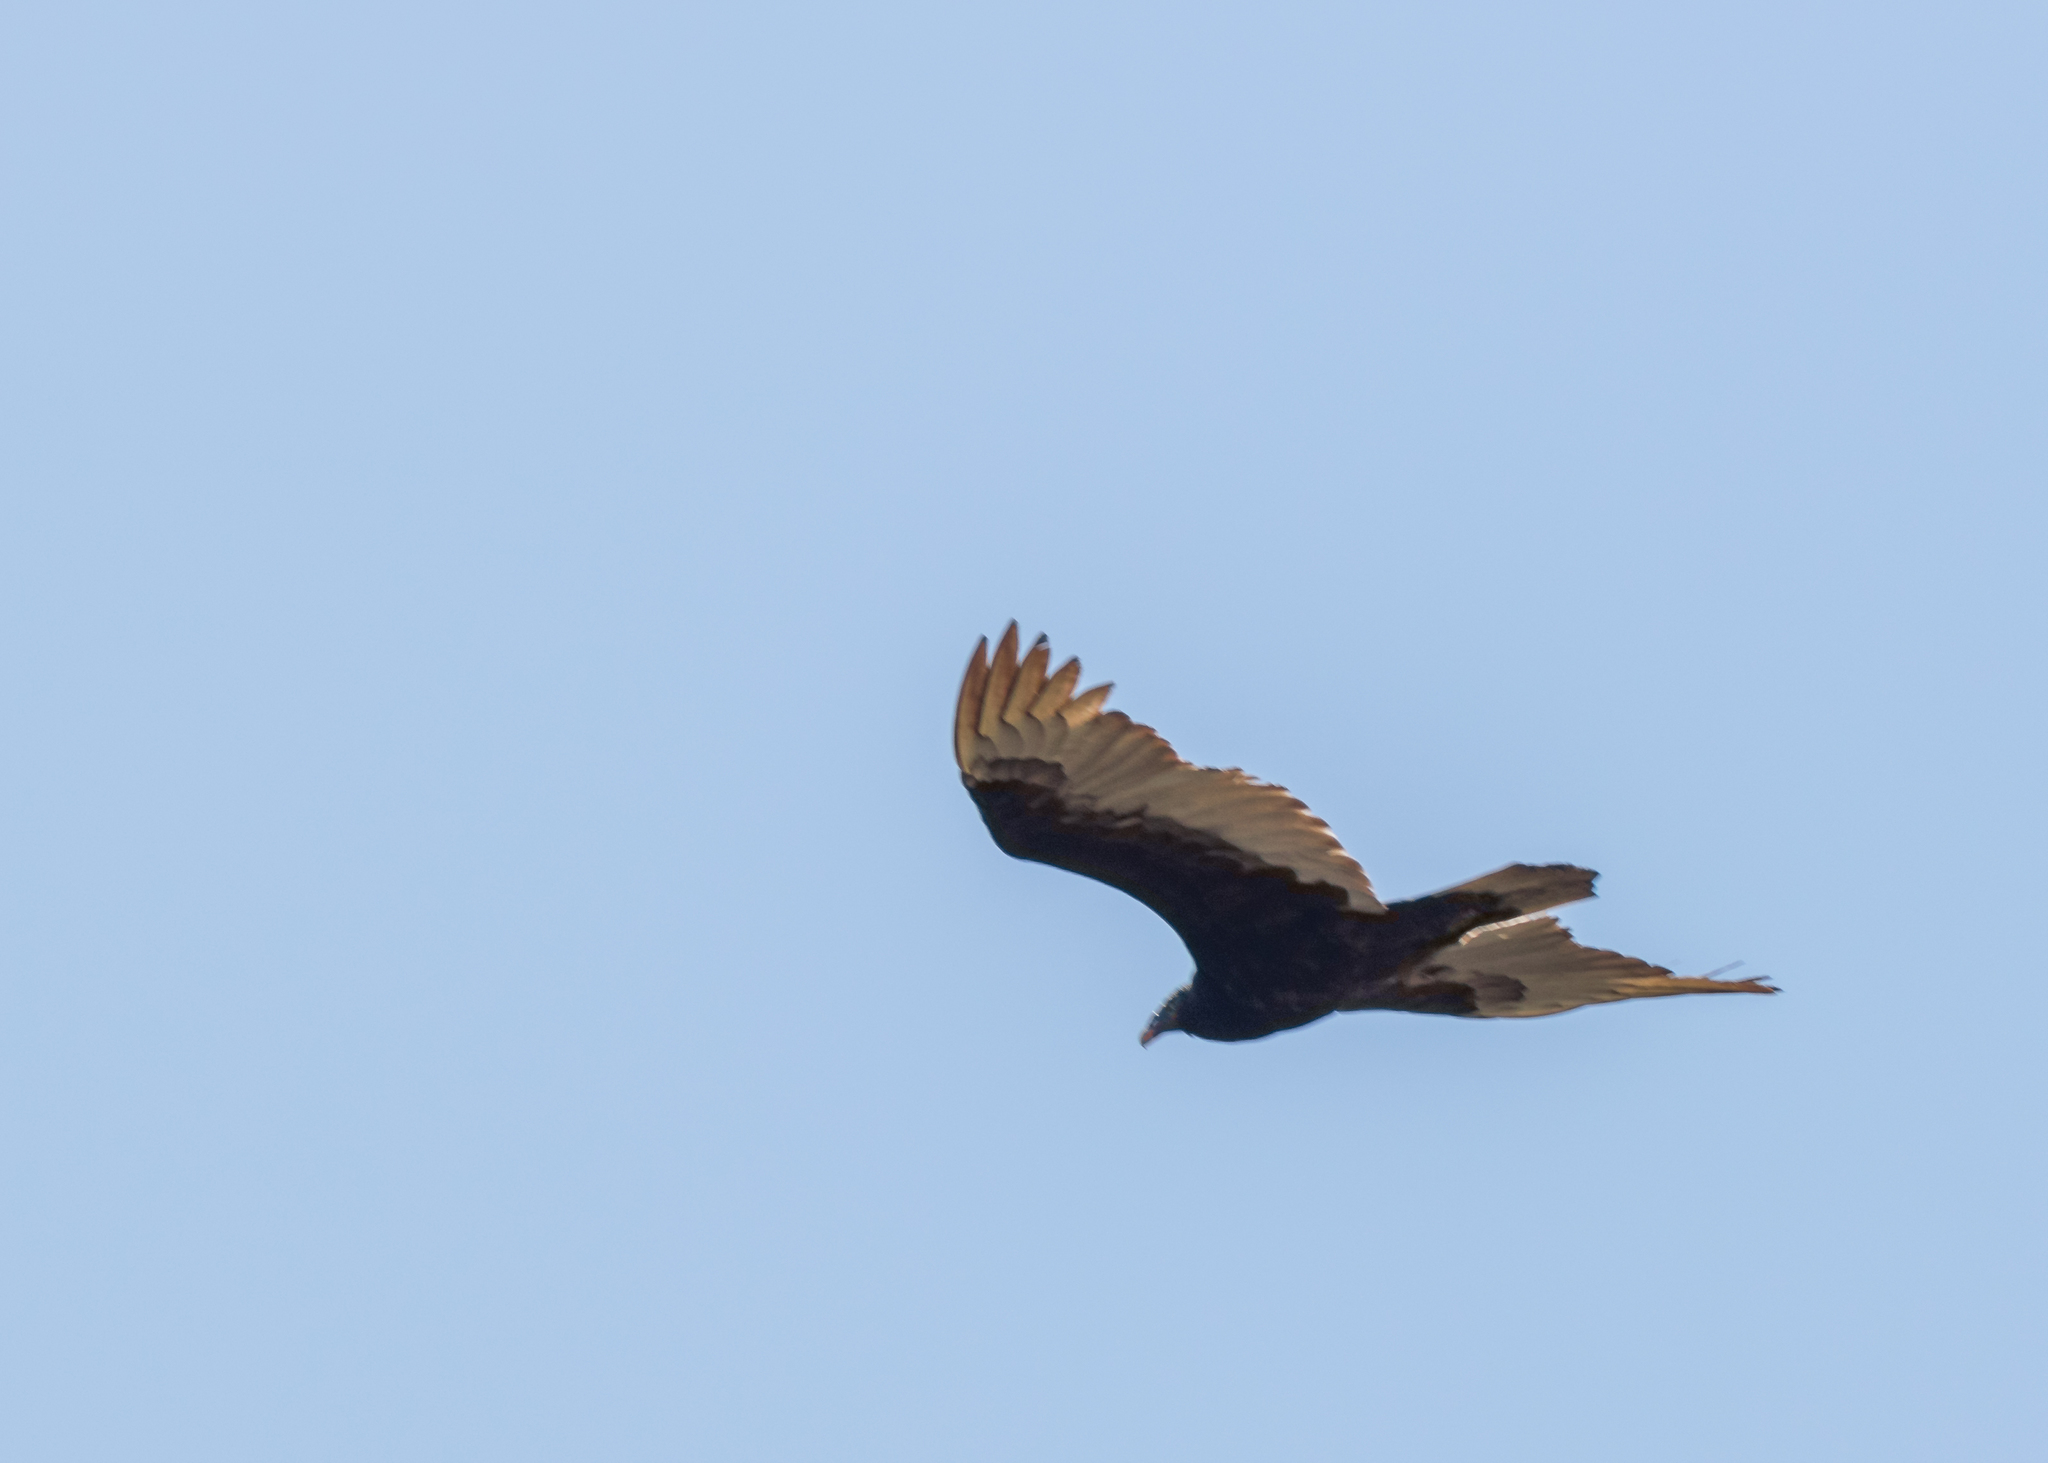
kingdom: Animalia
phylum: Chordata
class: Aves
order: Accipitriformes
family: Cathartidae
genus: Cathartes
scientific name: Cathartes aura
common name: Turkey vulture
